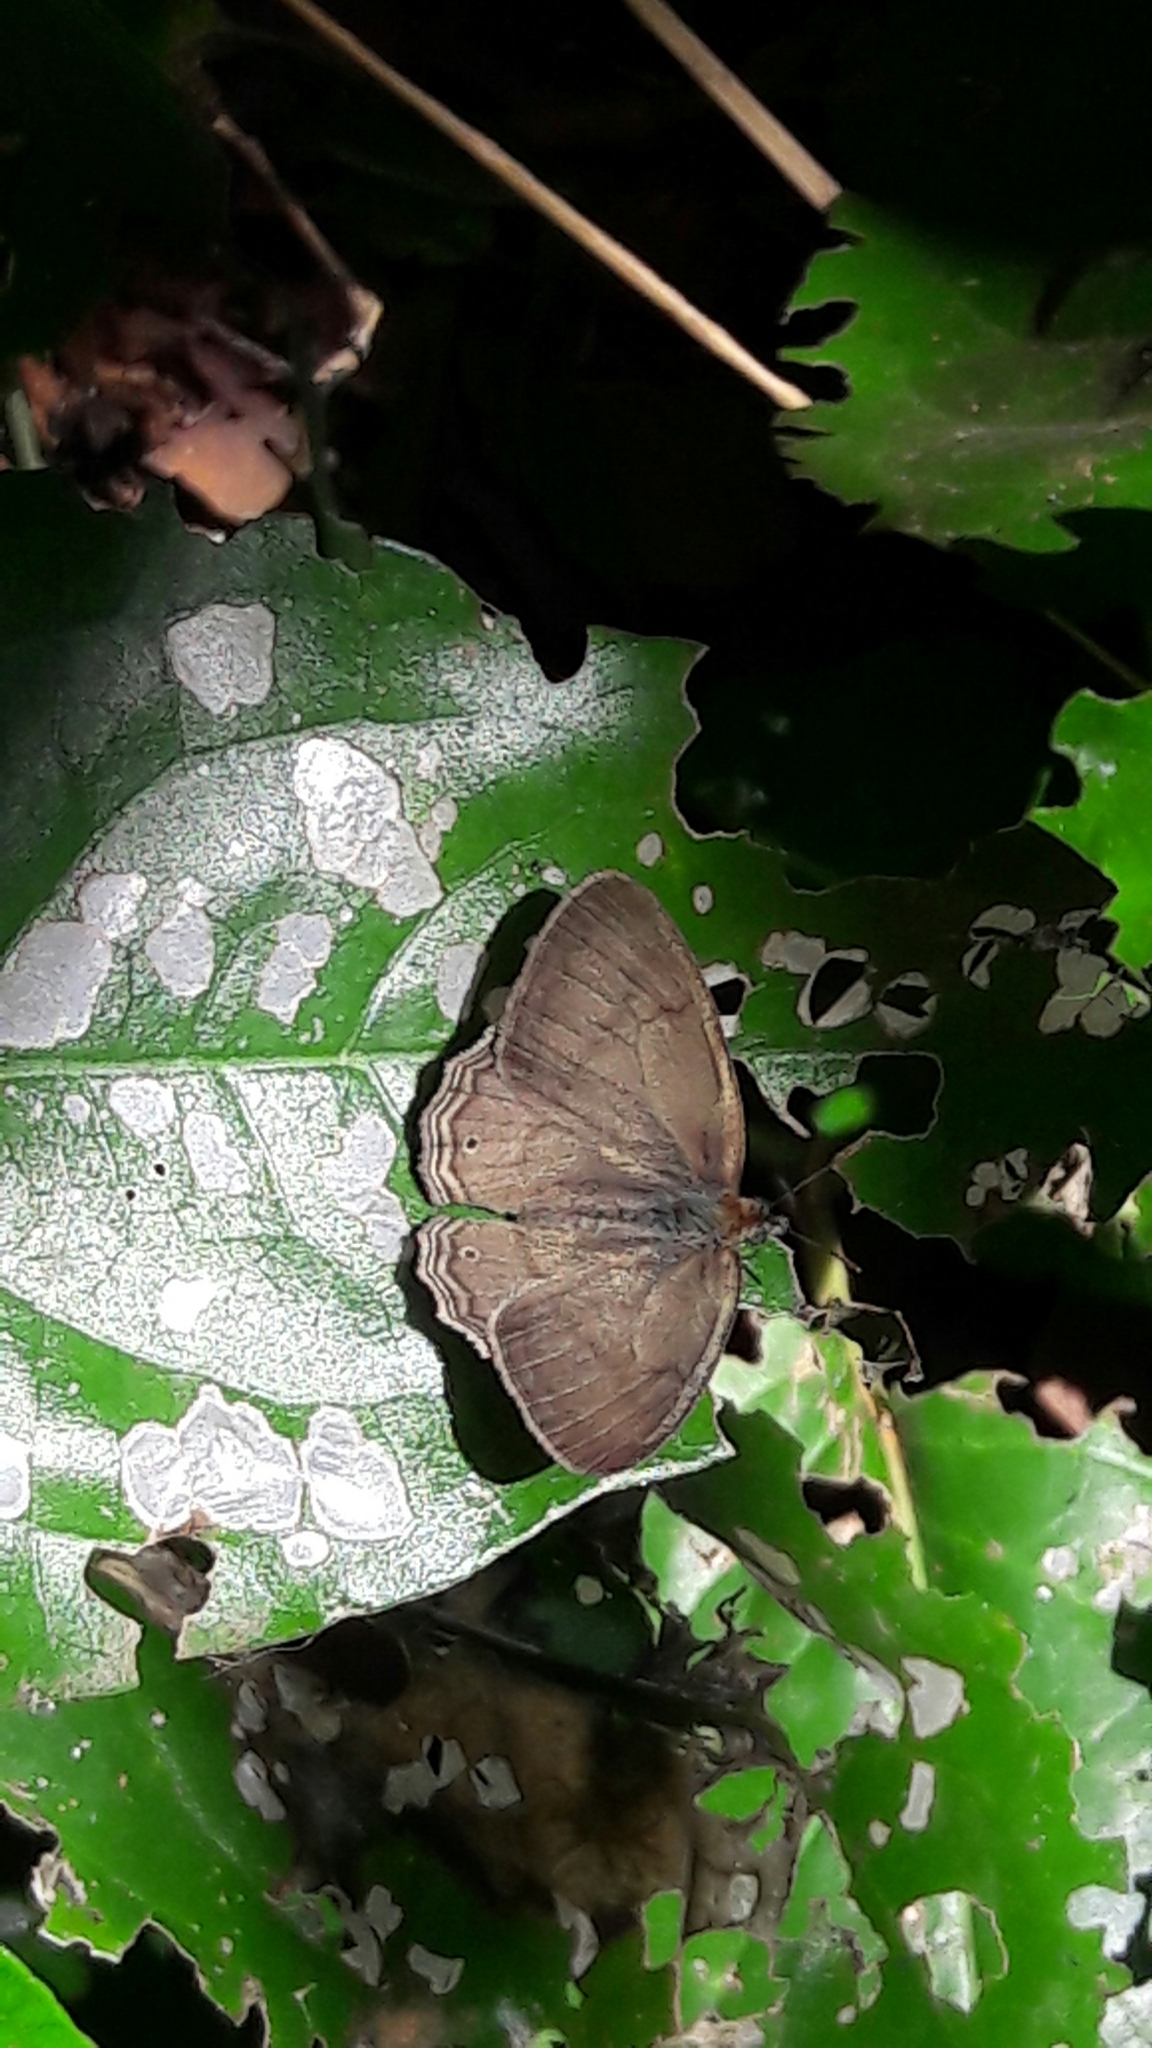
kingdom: Animalia
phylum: Arthropoda
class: Insecta
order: Lepidoptera
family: Nymphalidae
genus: Paryphthimoides
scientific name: Paryphthimoides poltys
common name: Poltys satyr
